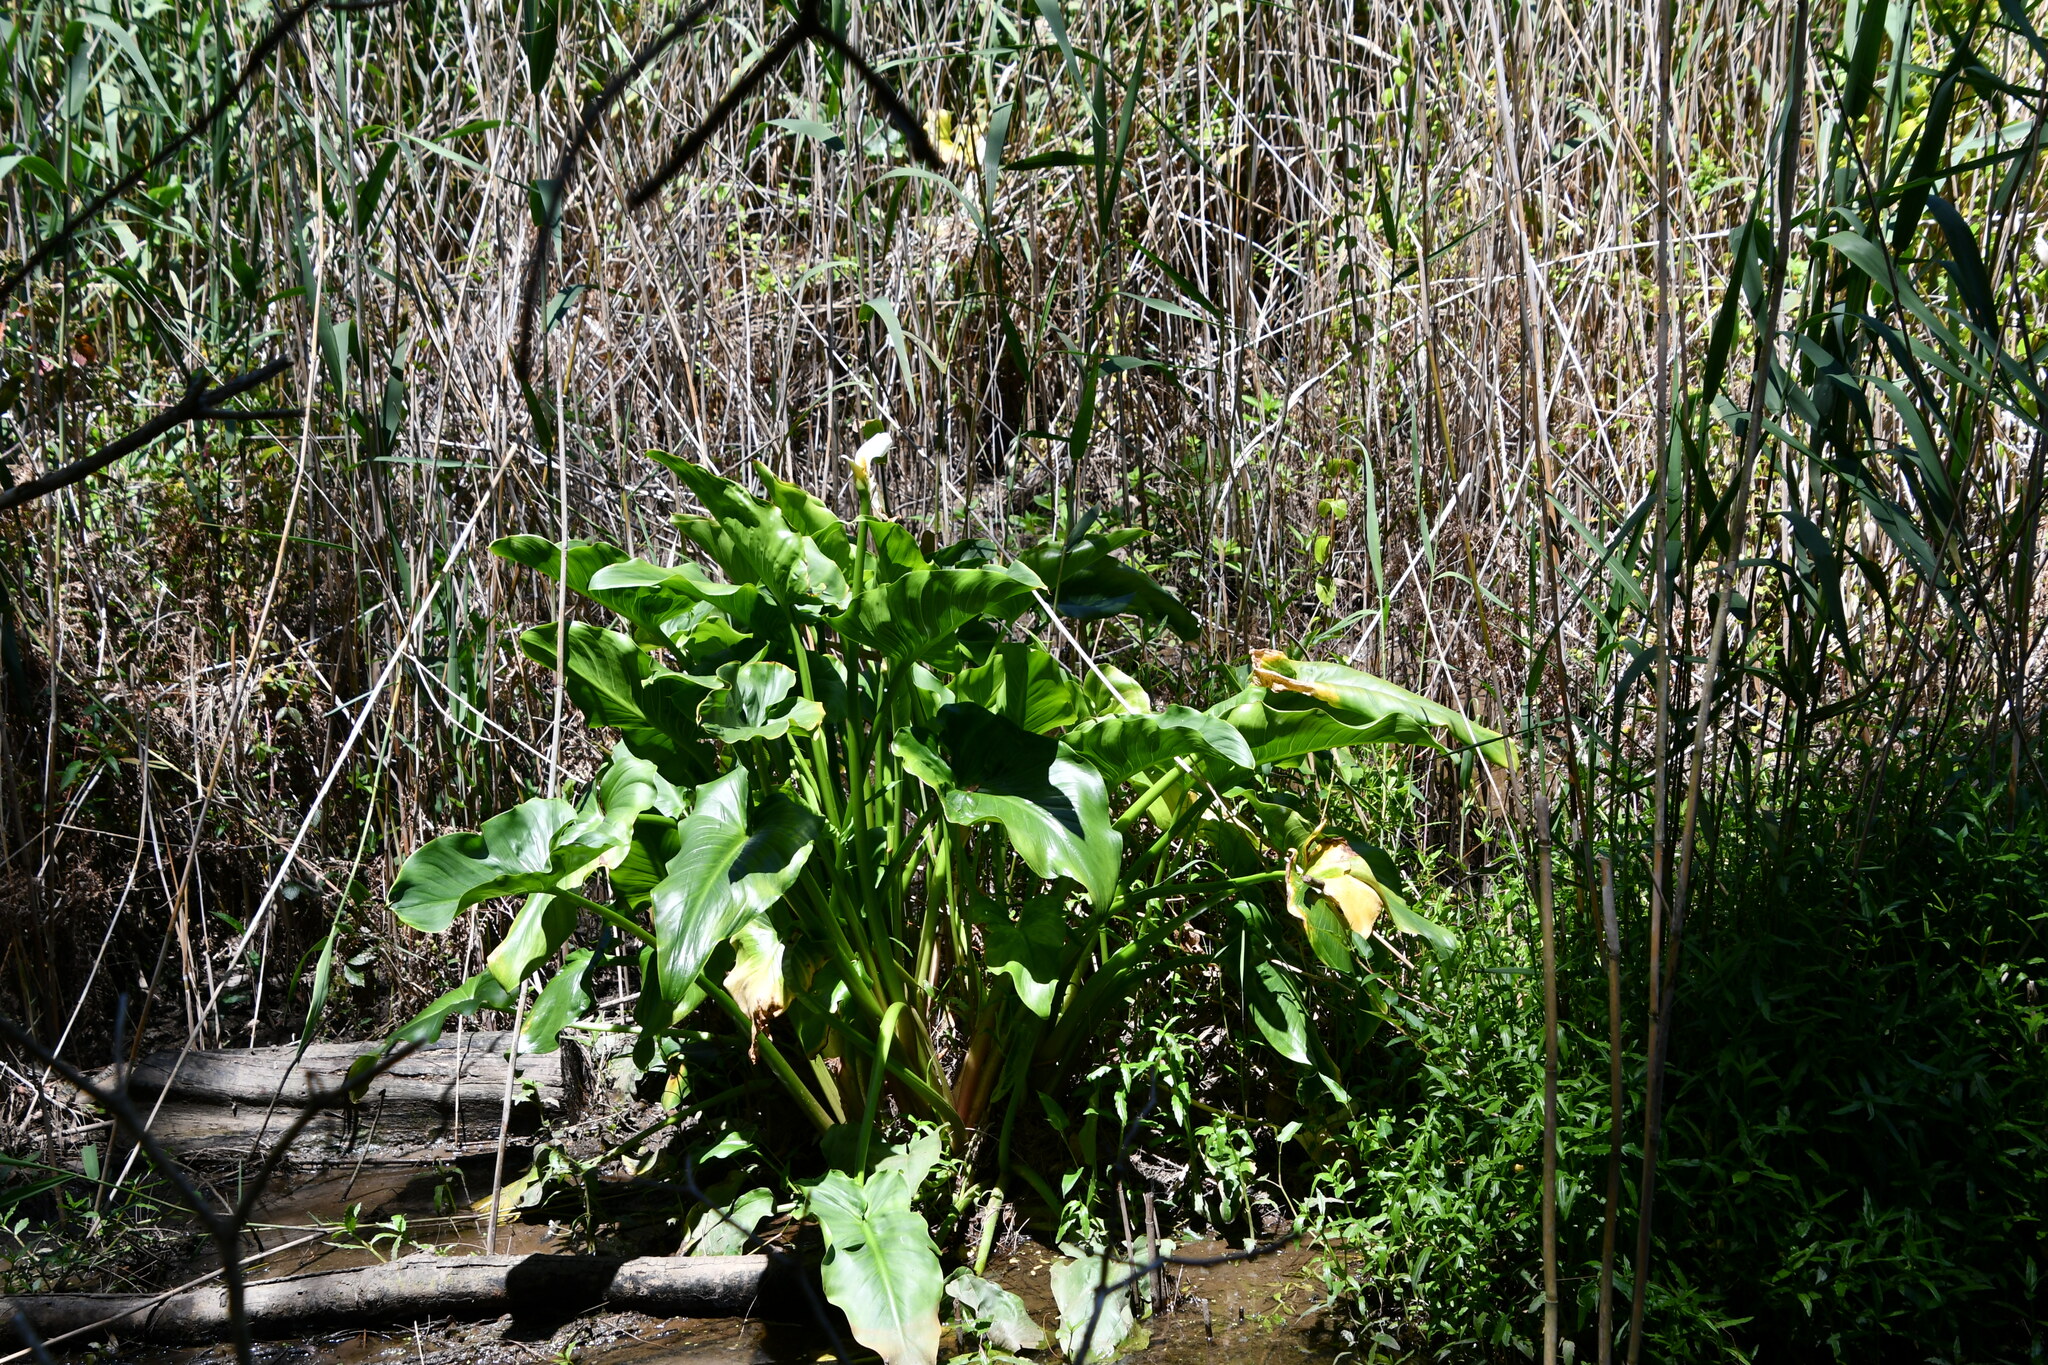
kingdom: Plantae
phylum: Tracheophyta
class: Liliopsida
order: Alismatales
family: Araceae
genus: Zantedeschia
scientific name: Zantedeschia aethiopica
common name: Altar-lily
